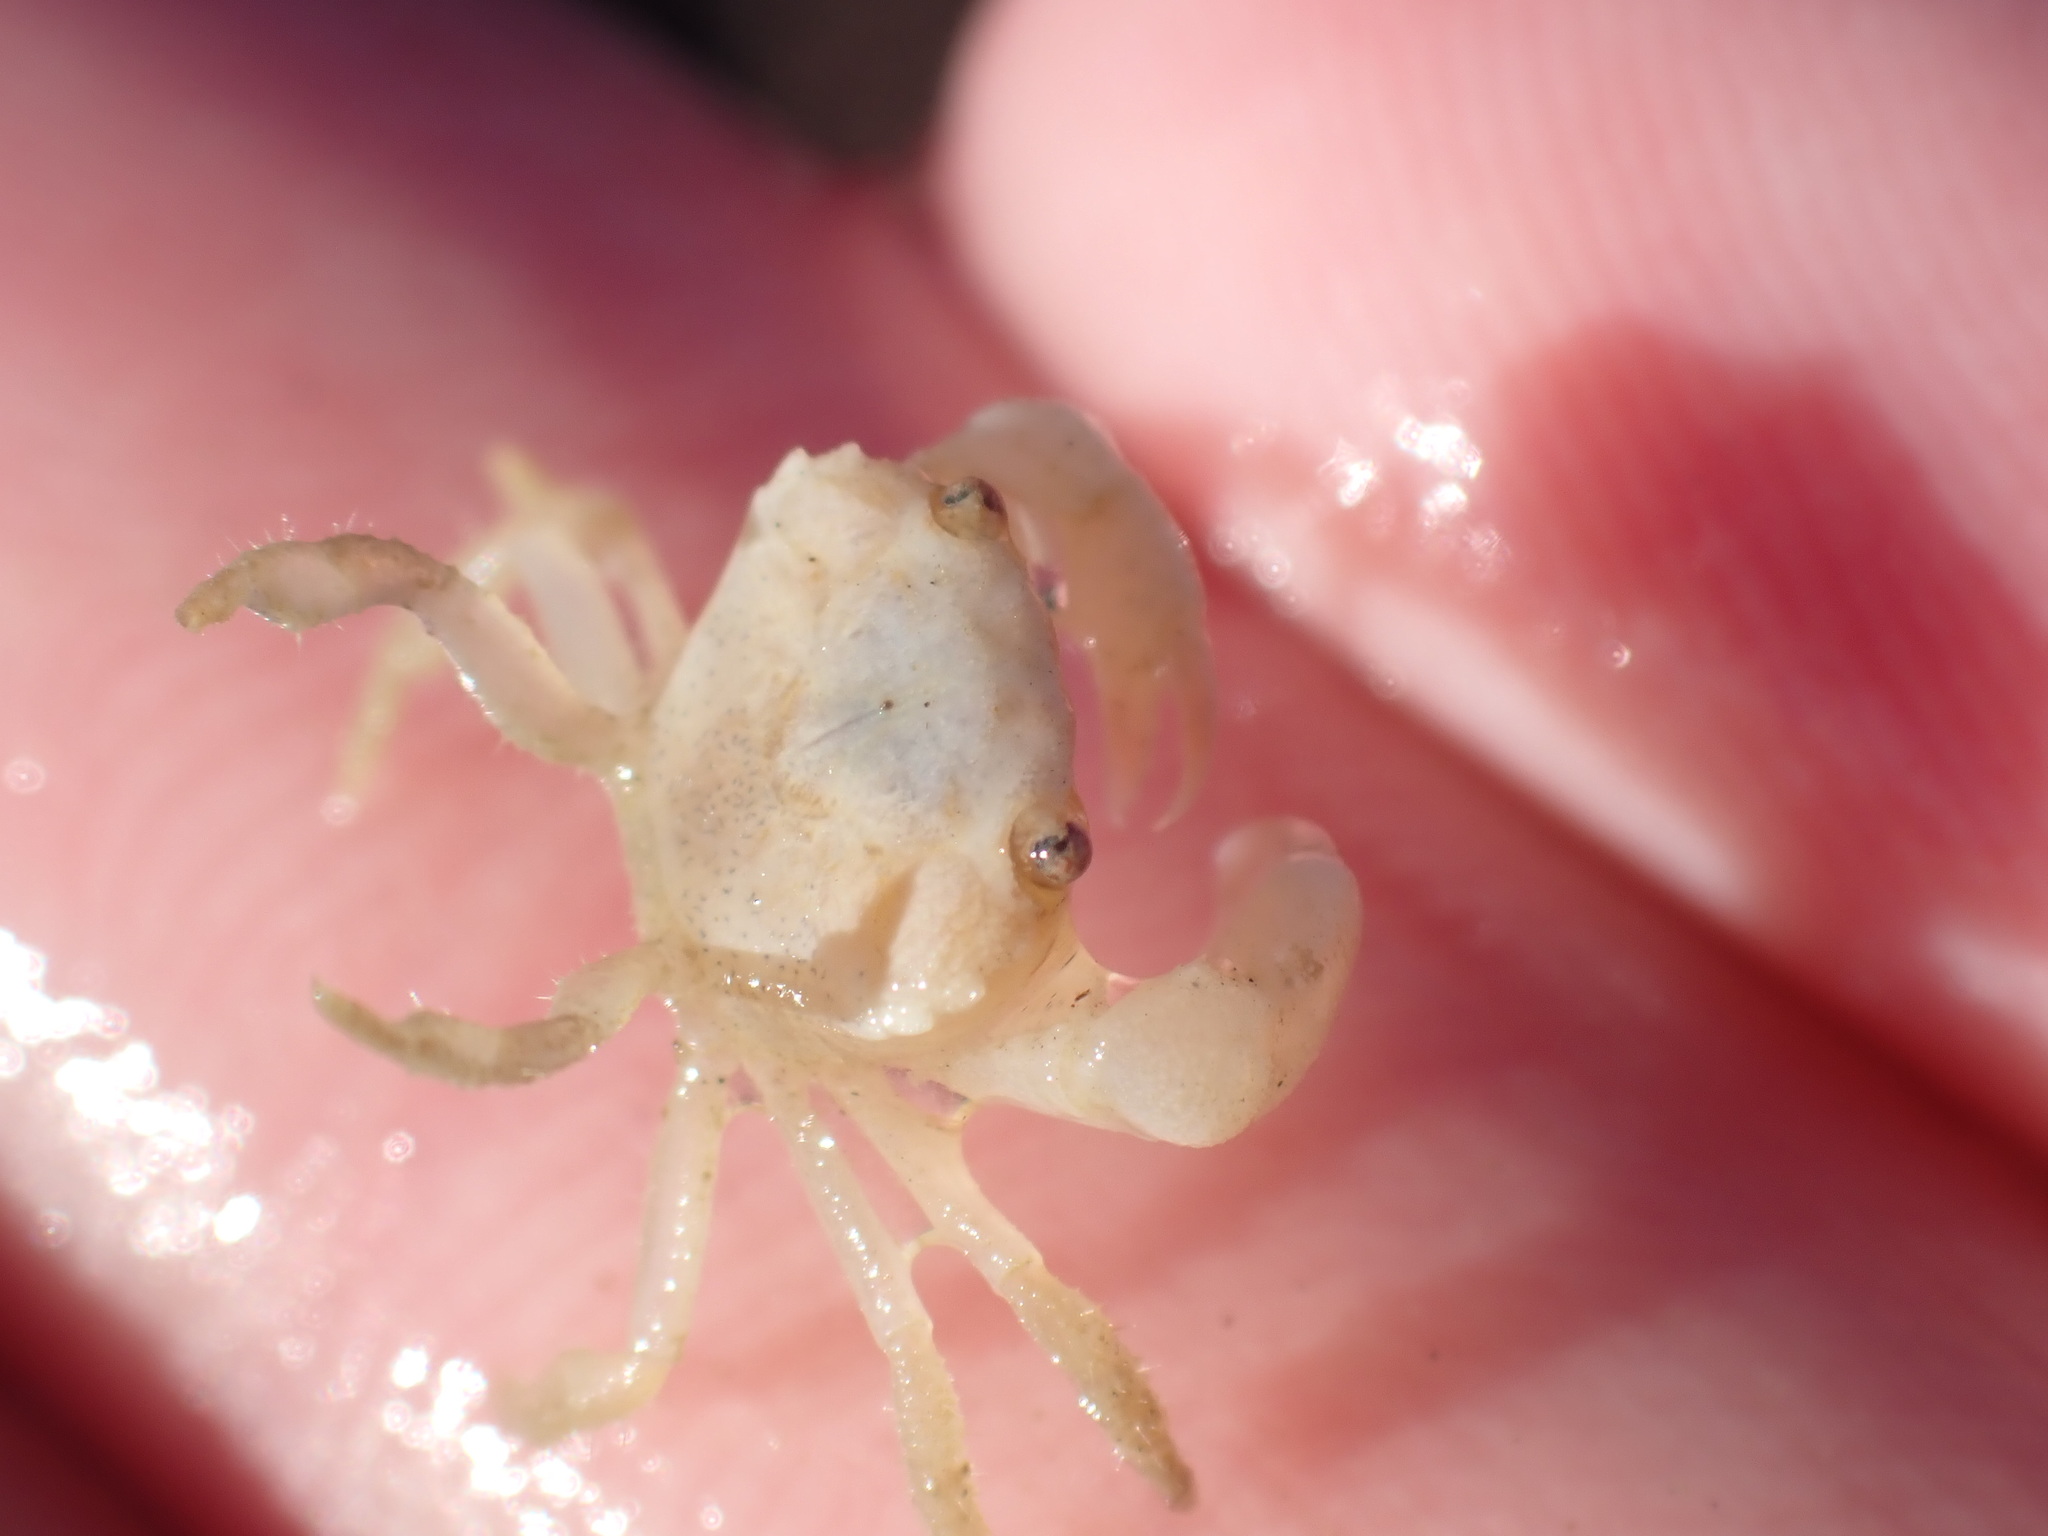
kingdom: Animalia
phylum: Arthropoda
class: Malacostraca
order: Decapoda
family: Oziidae
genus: Ozius
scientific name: Ozius deplanatus
